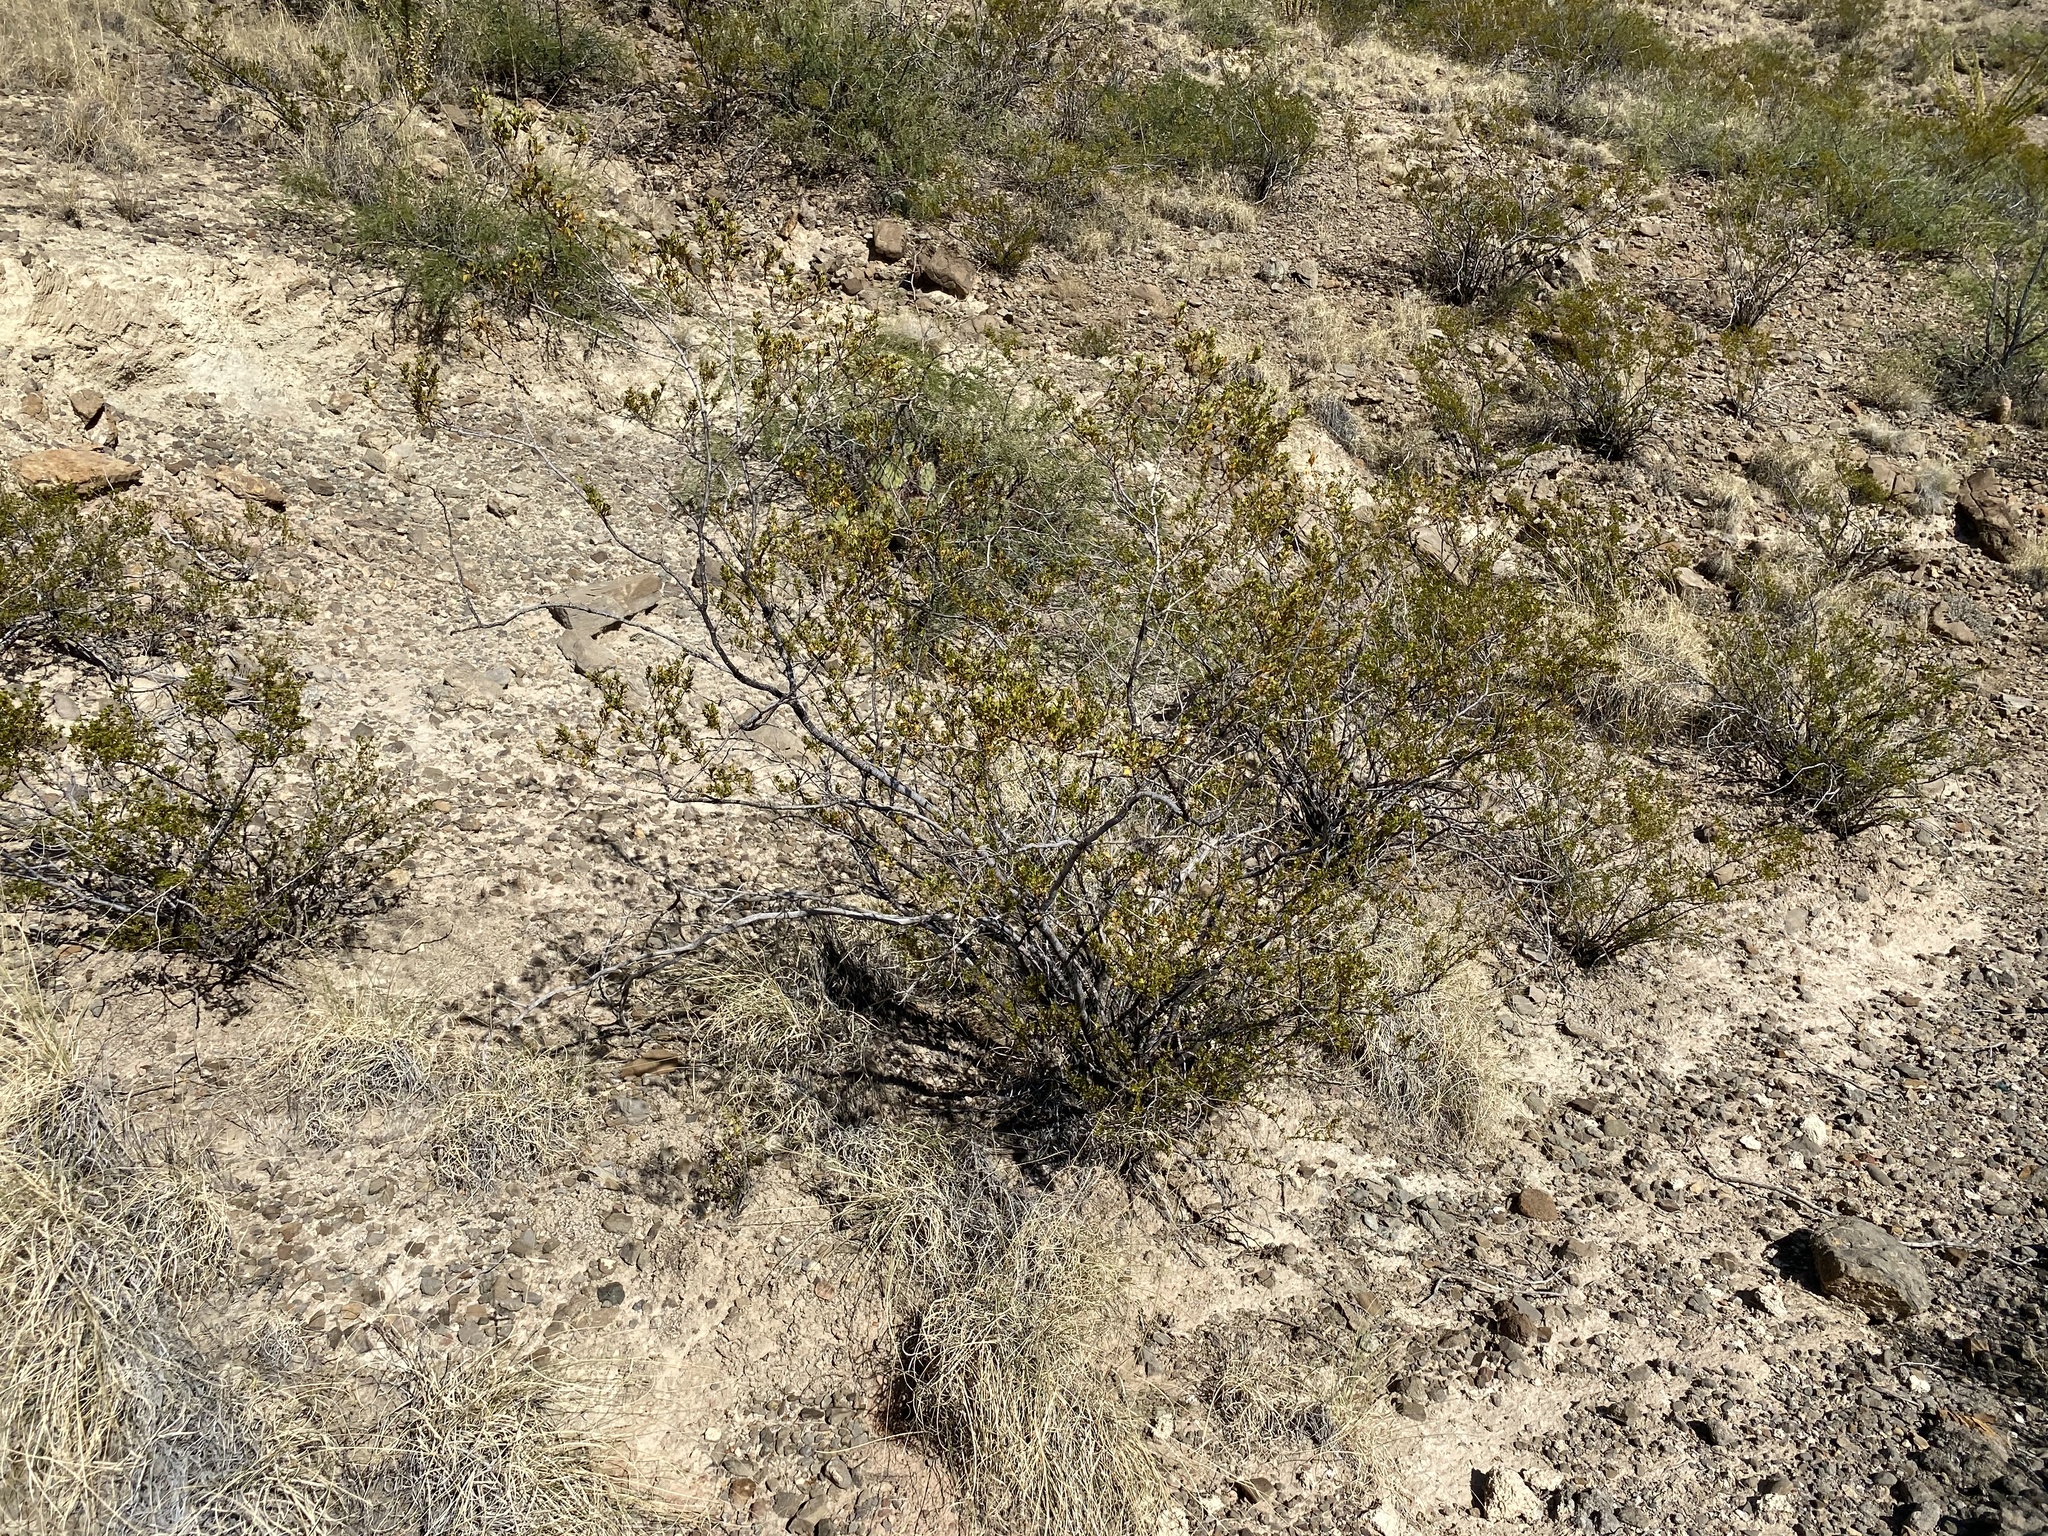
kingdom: Plantae
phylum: Tracheophyta
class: Magnoliopsida
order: Zygophyllales
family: Zygophyllaceae
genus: Larrea
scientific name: Larrea tridentata
